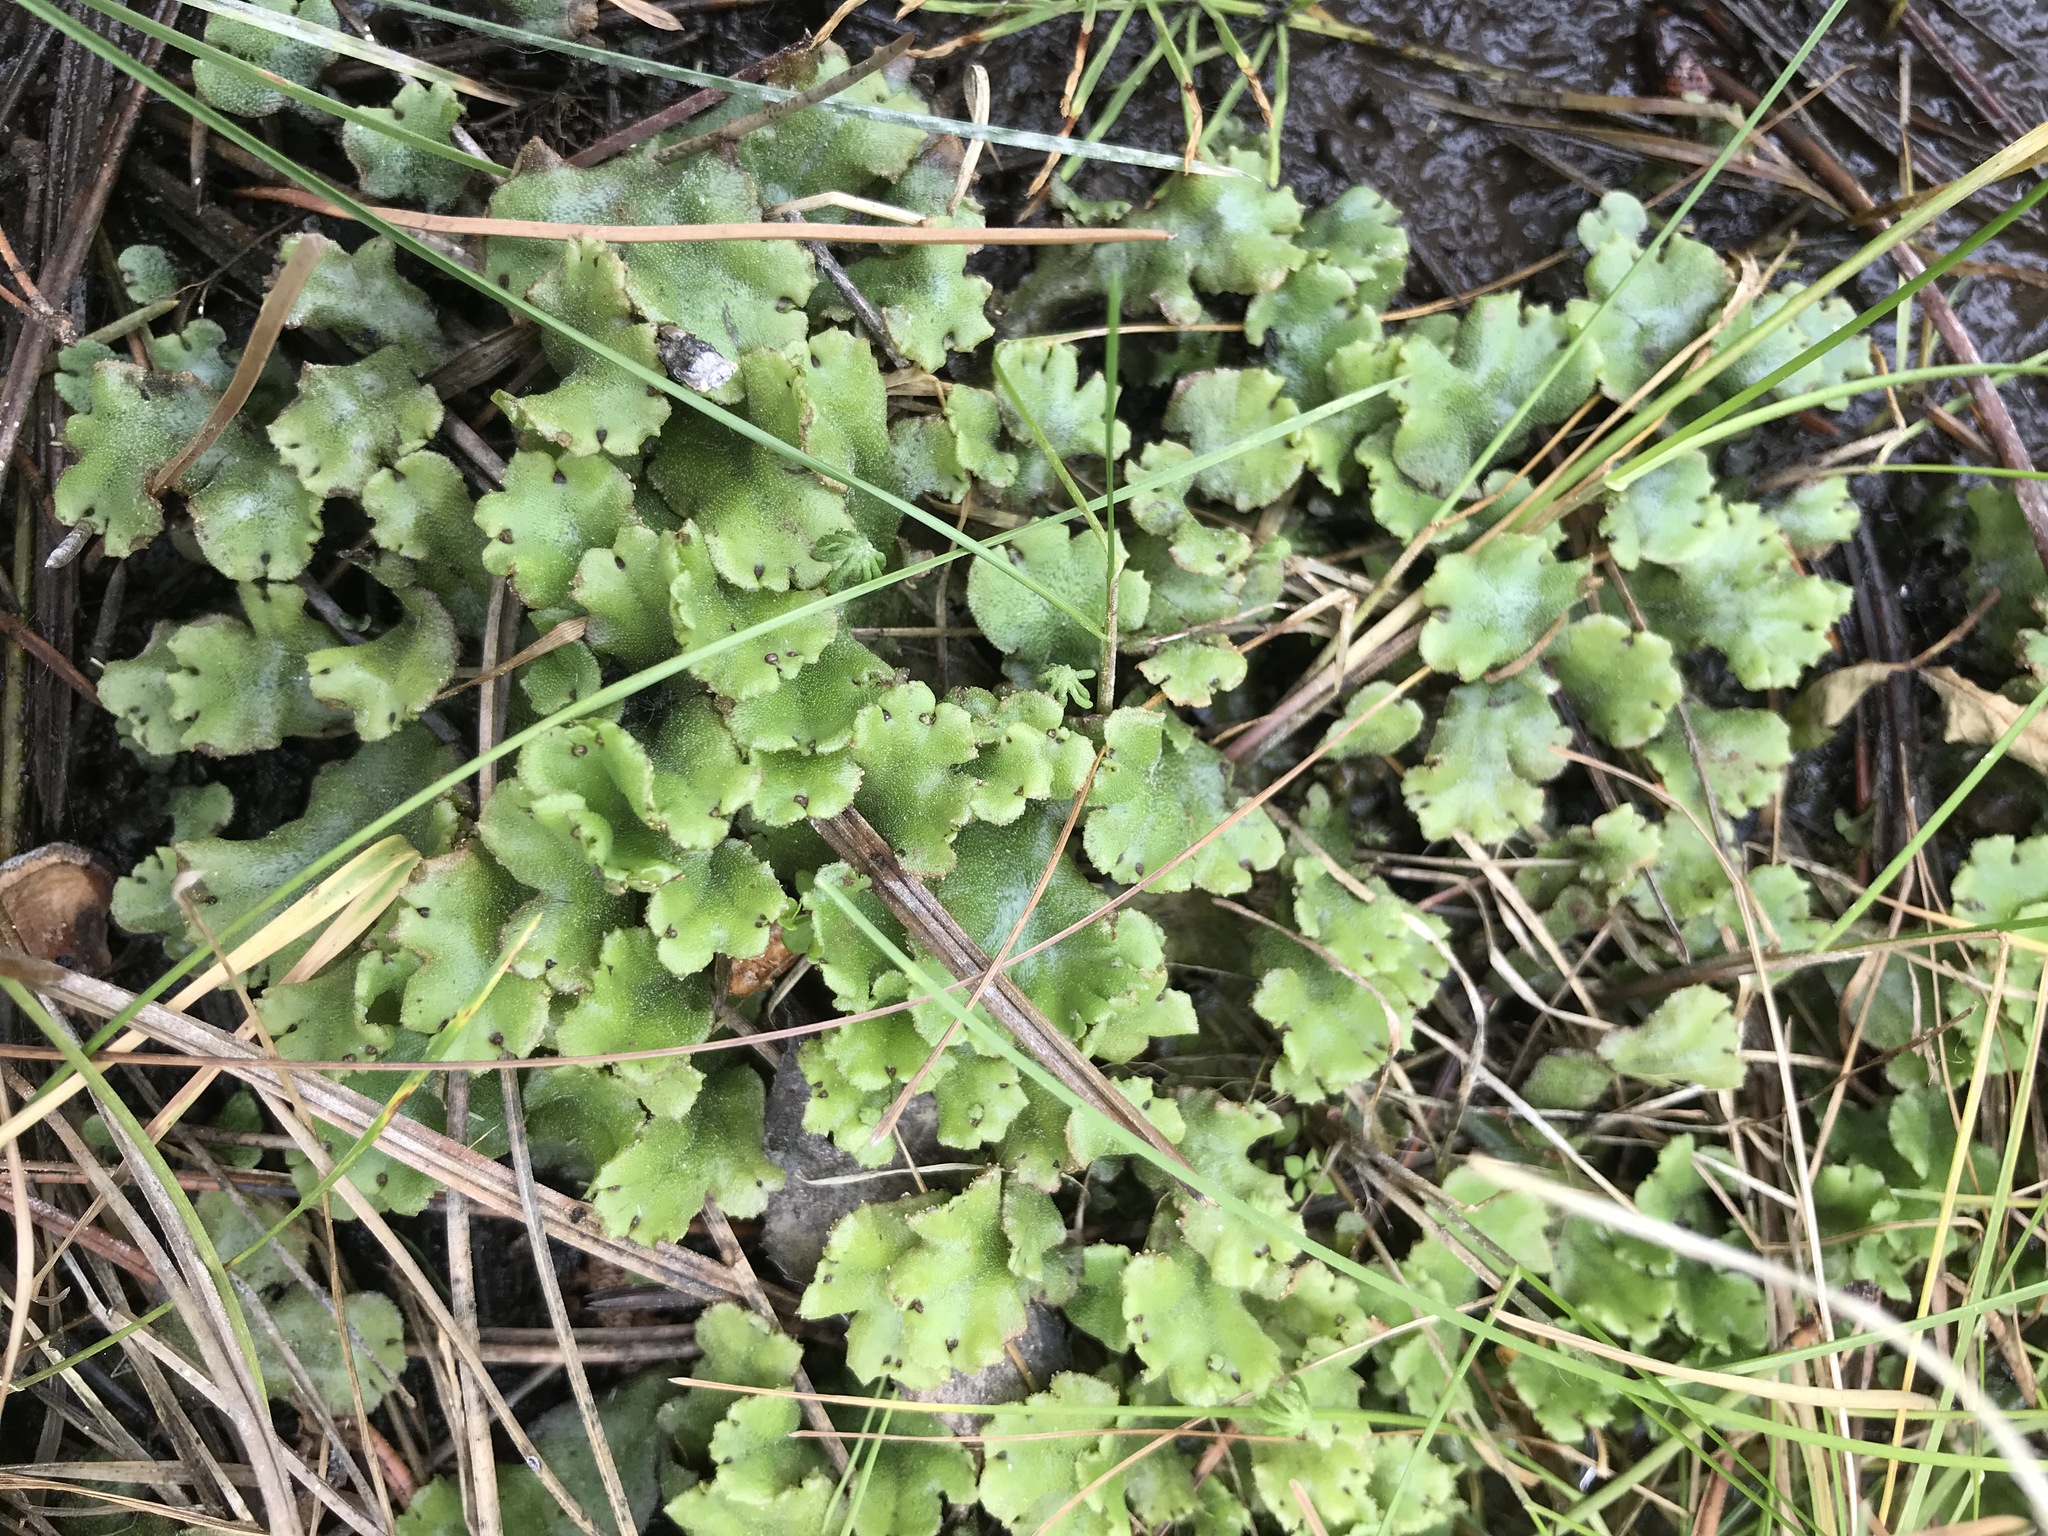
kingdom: Plantae
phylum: Marchantiophyta
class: Marchantiopsida
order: Marchantiales
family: Marchantiaceae
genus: Marchantia
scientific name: Marchantia polymorpha
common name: Common liverwort
